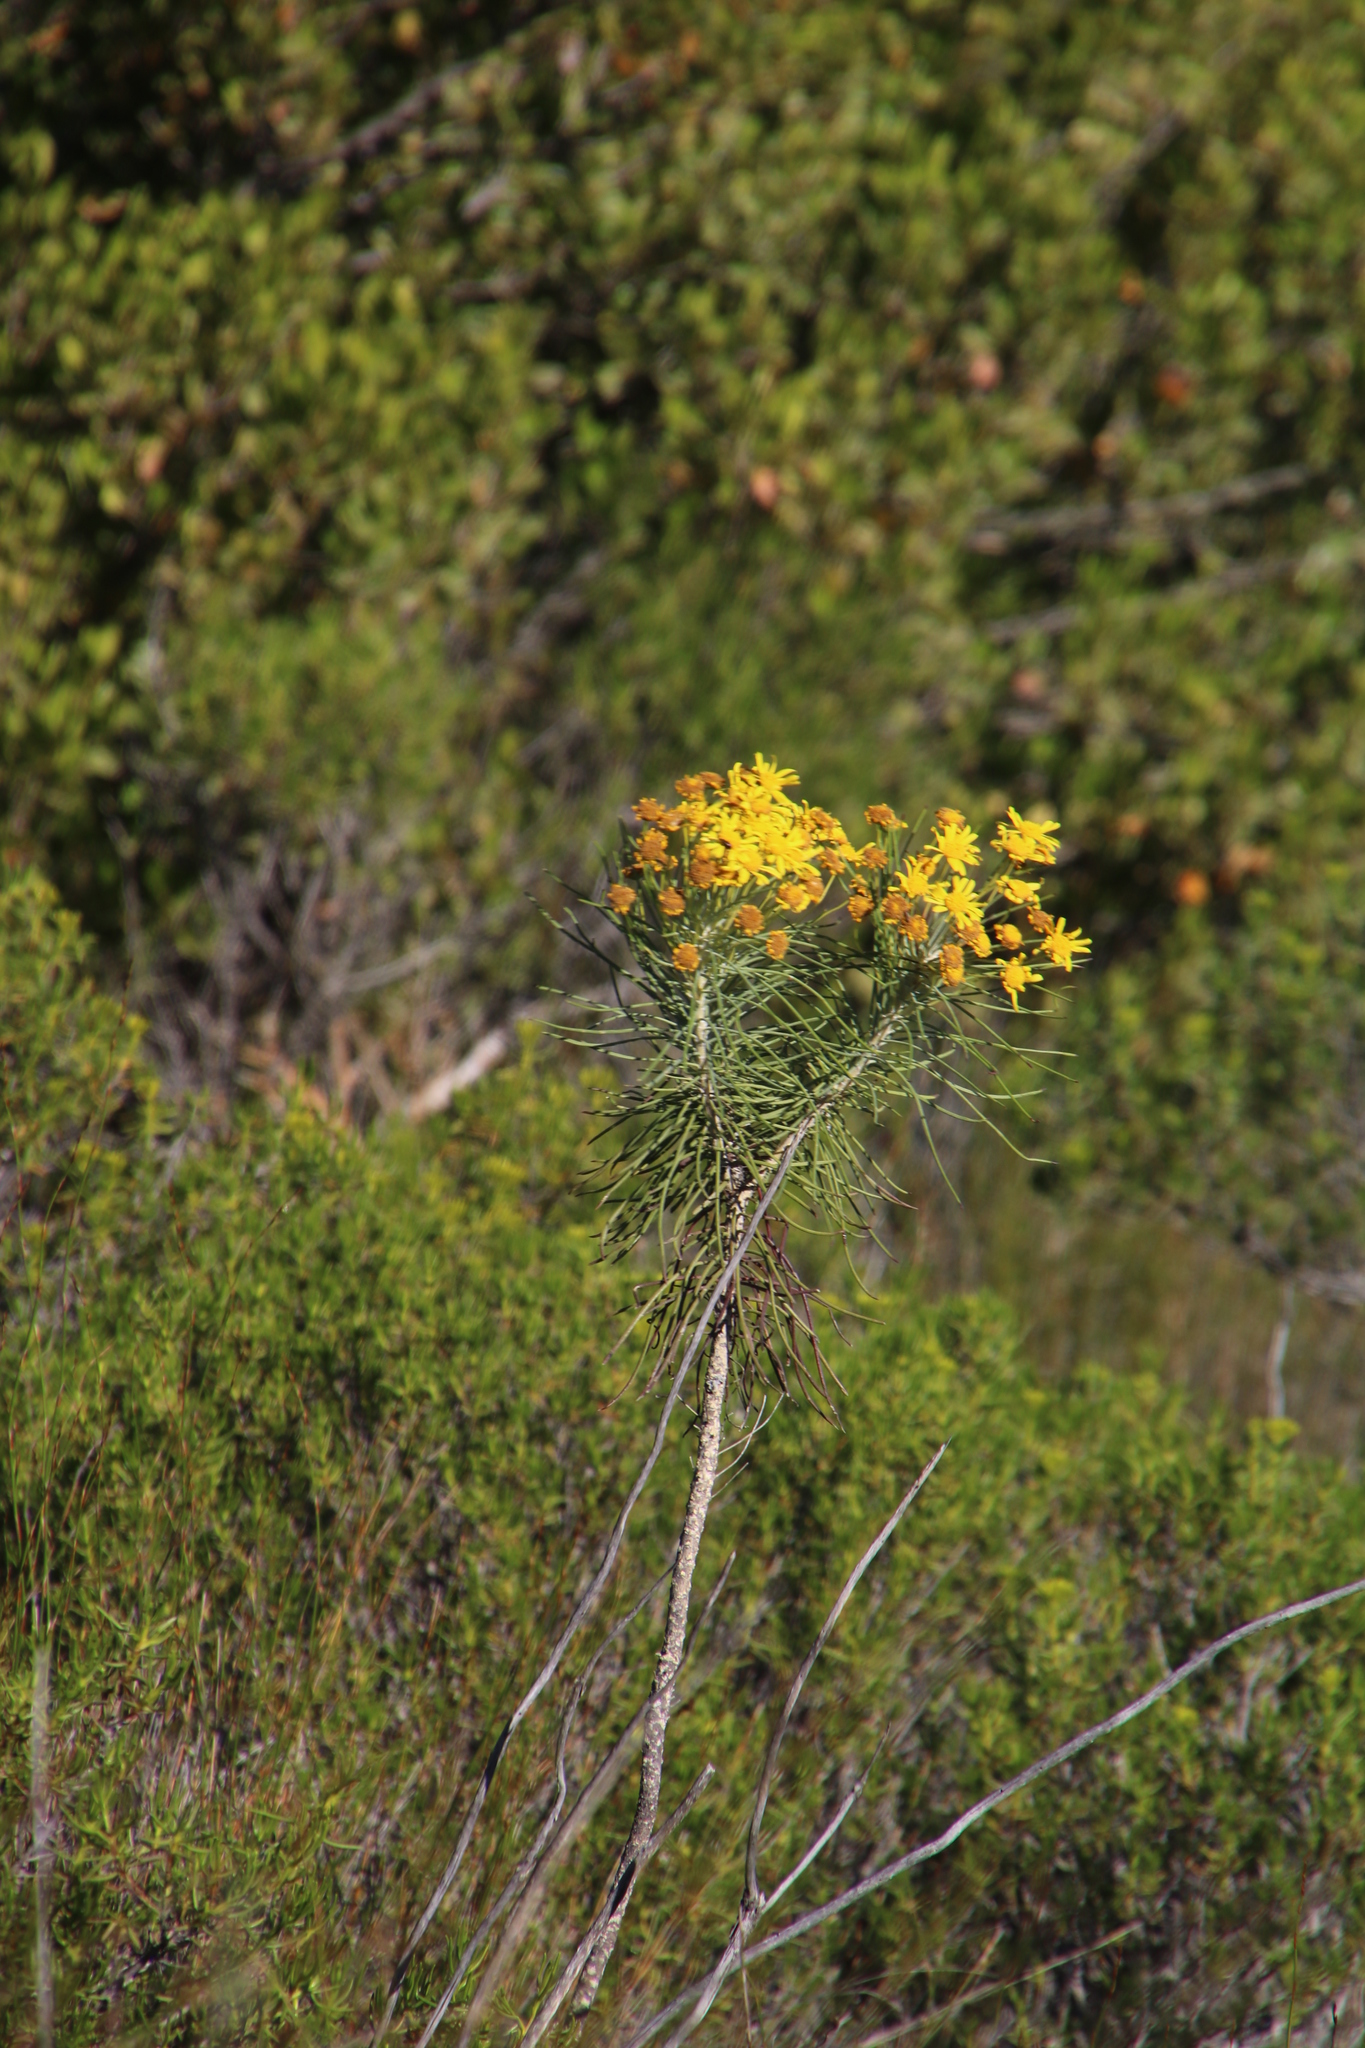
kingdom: Plantae
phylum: Tracheophyta
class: Magnoliopsida
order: Asterales
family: Asteraceae
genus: Euryops
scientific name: Euryops tenuissimus
